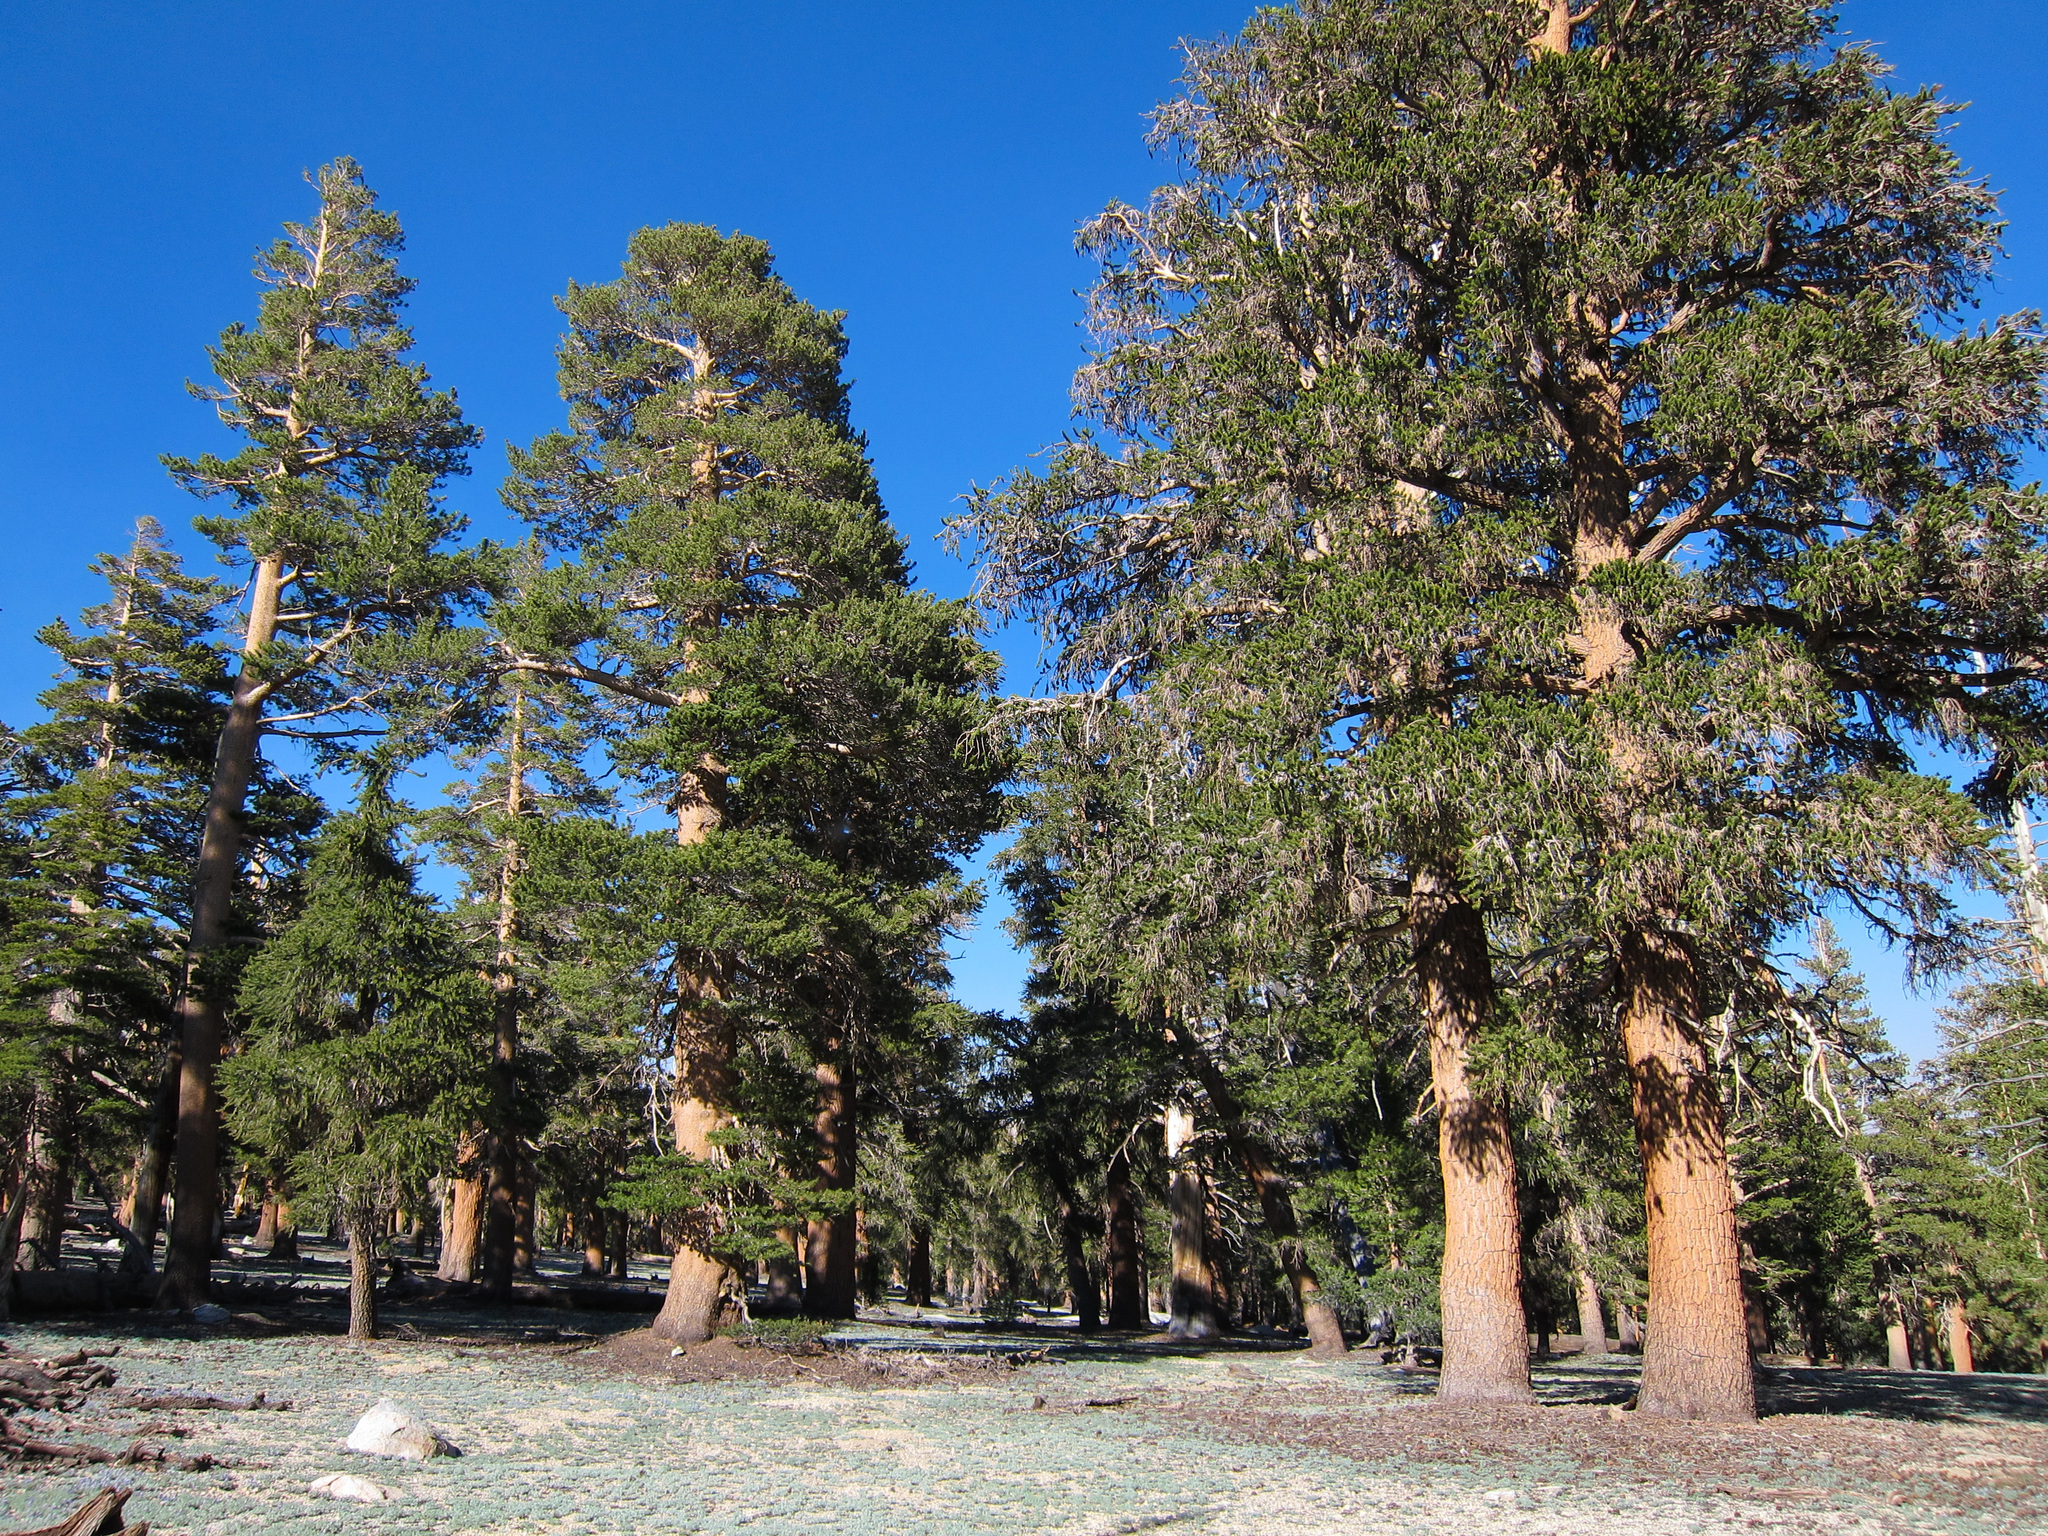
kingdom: Plantae
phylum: Tracheophyta
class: Pinopsida
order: Pinales
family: Pinaceae
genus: Pinus
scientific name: Pinus balfouriana
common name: Foxtail pine
